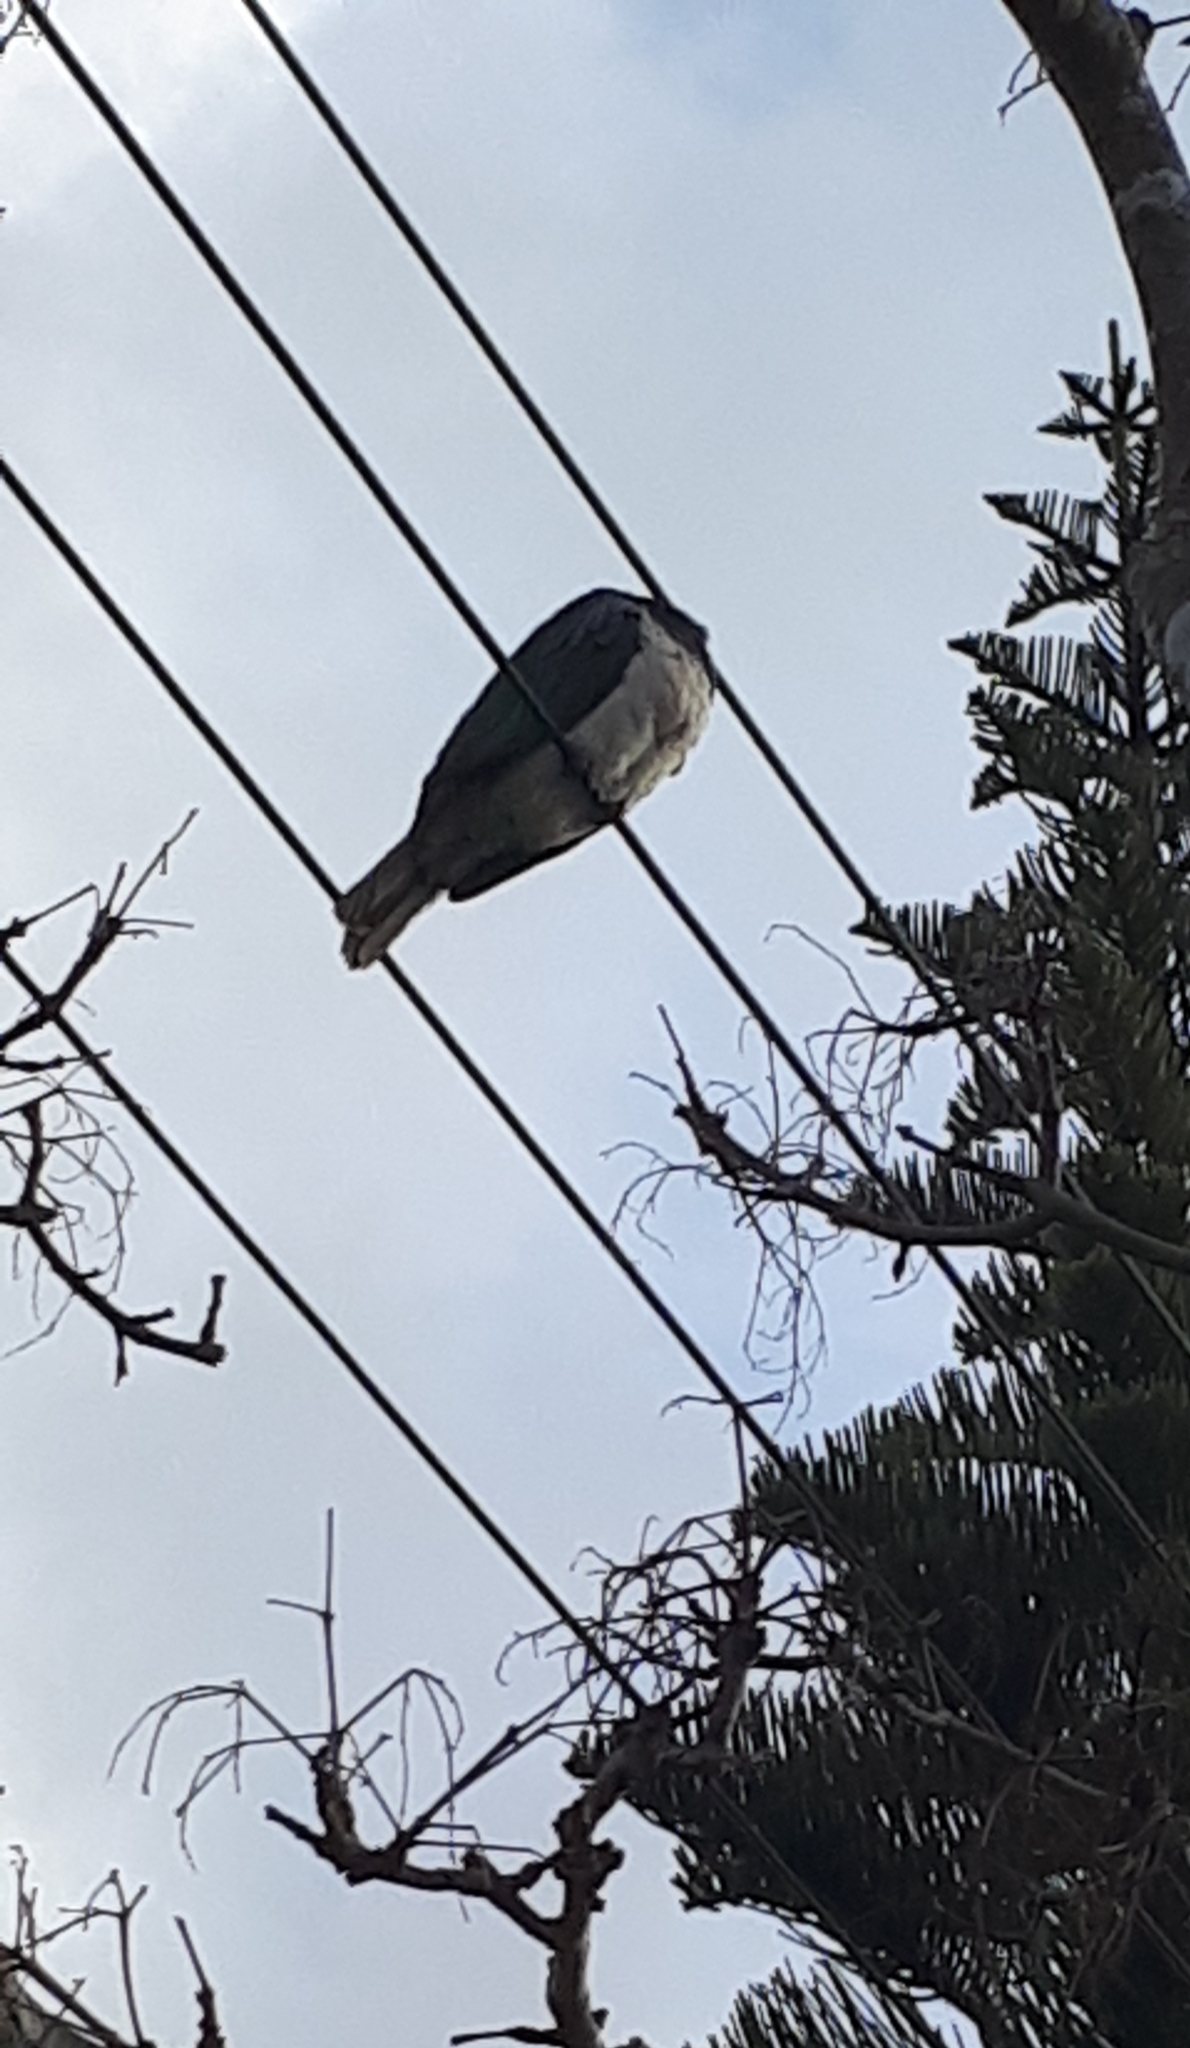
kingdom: Animalia
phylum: Chordata
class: Aves
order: Columbiformes
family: Columbidae
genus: Hemiphaga
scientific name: Hemiphaga novaeseelandiae
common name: New zealand pigeon
